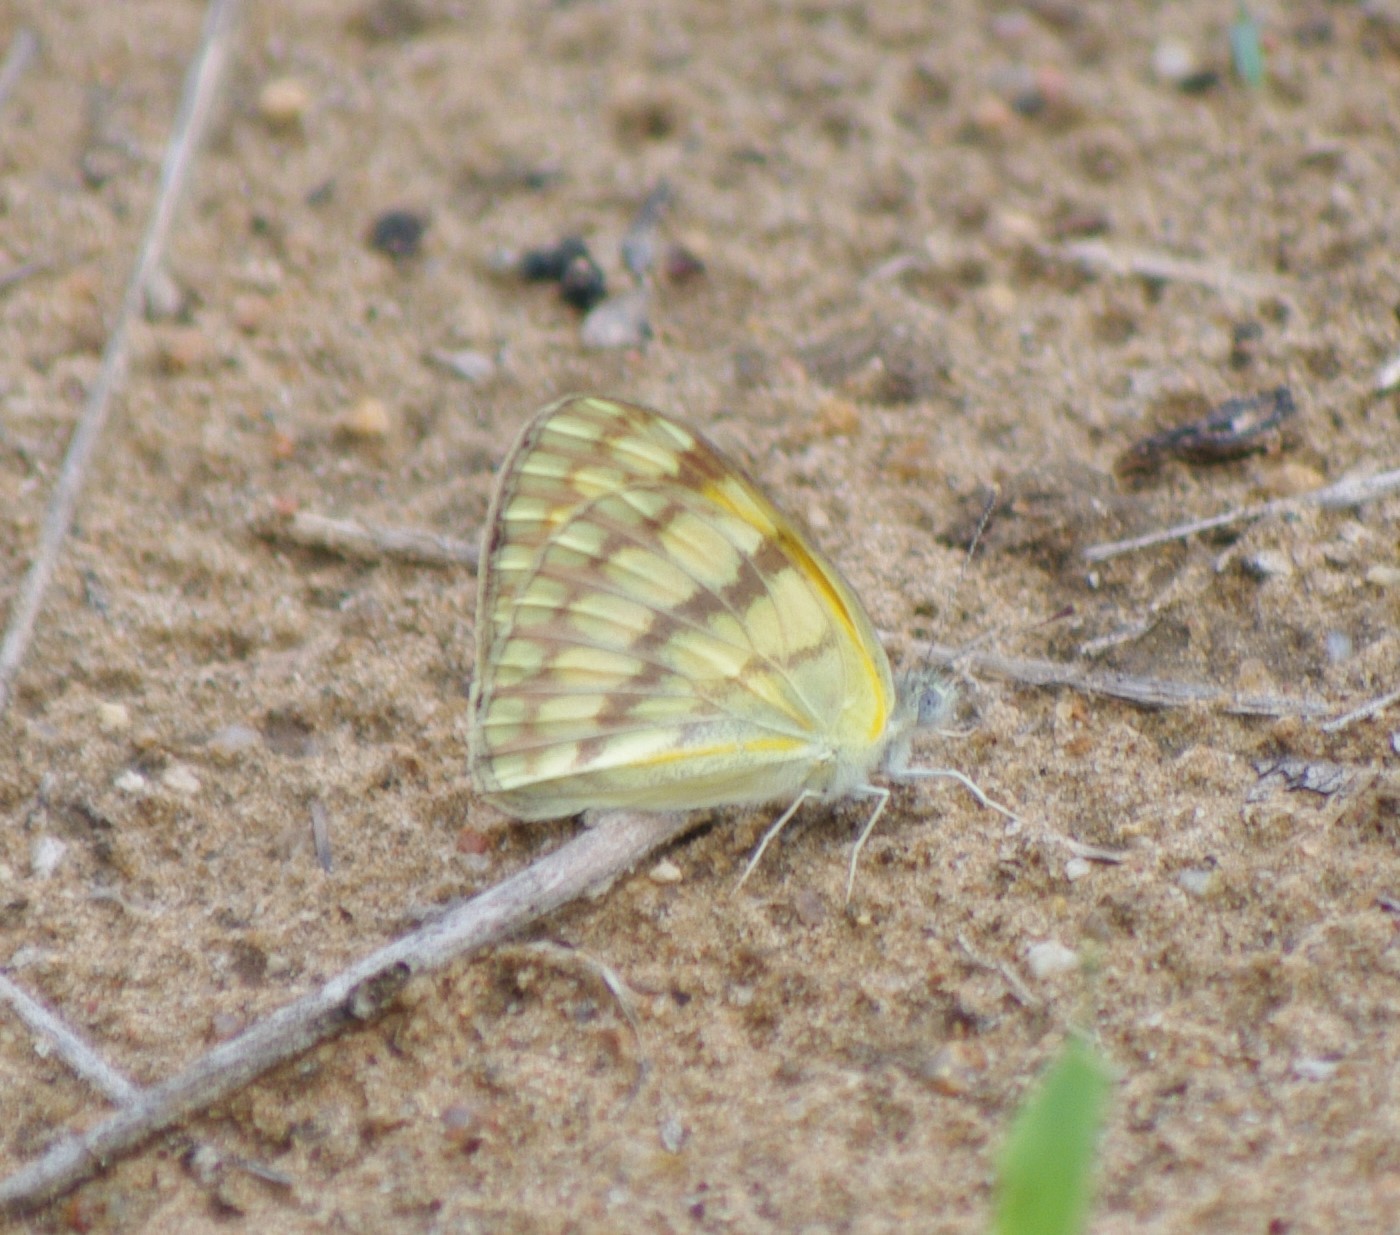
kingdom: Animalia
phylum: Arthropoda
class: Insecta
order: Lepidoptera
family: Pieridae
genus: Colotis
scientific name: Colotis vesta
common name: Veined golden arab
